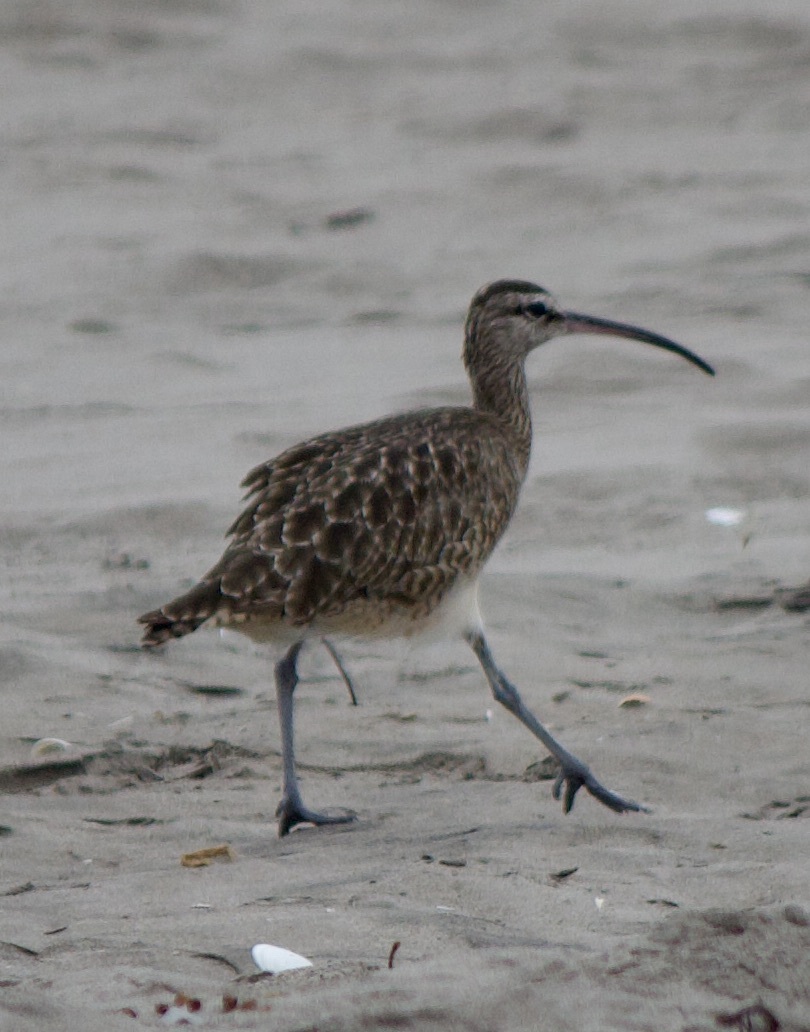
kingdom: Animalia
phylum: Chordata
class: Aves
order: Charadriiformes
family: Scolopacidae
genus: Numenius
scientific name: Numenius phaeopus
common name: Whimbrel
